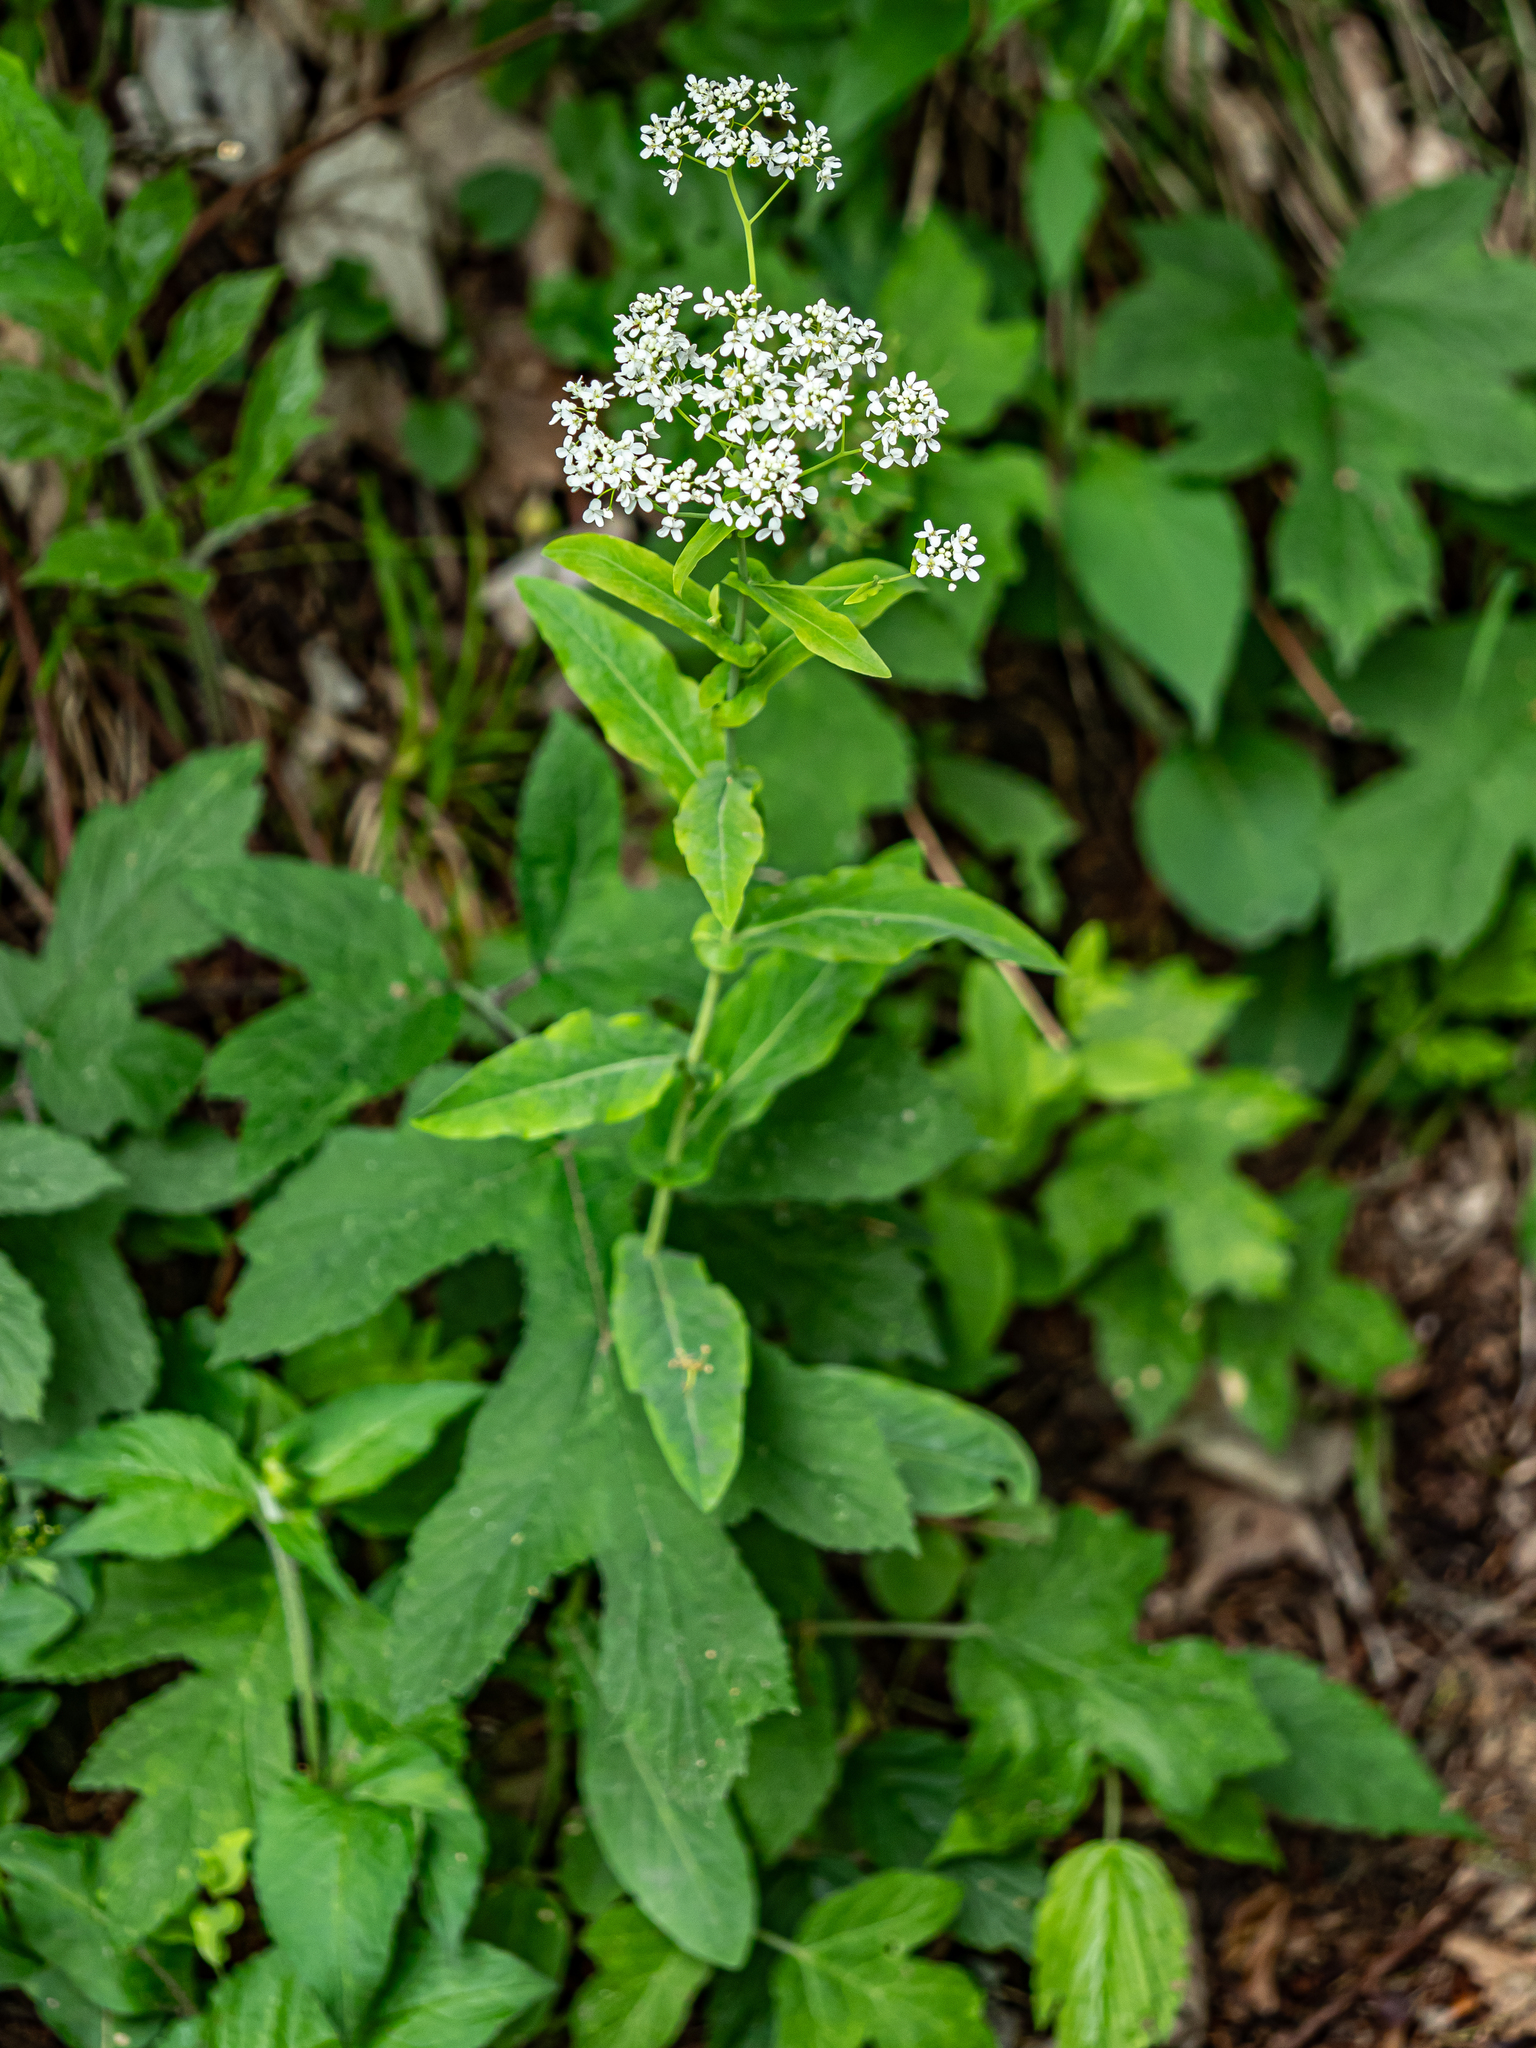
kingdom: Plantae
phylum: Tracheophyta
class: Magnoliopsida
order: Brassicales
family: Brassicaceae
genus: Peltaria
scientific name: Peltaria alliacea
